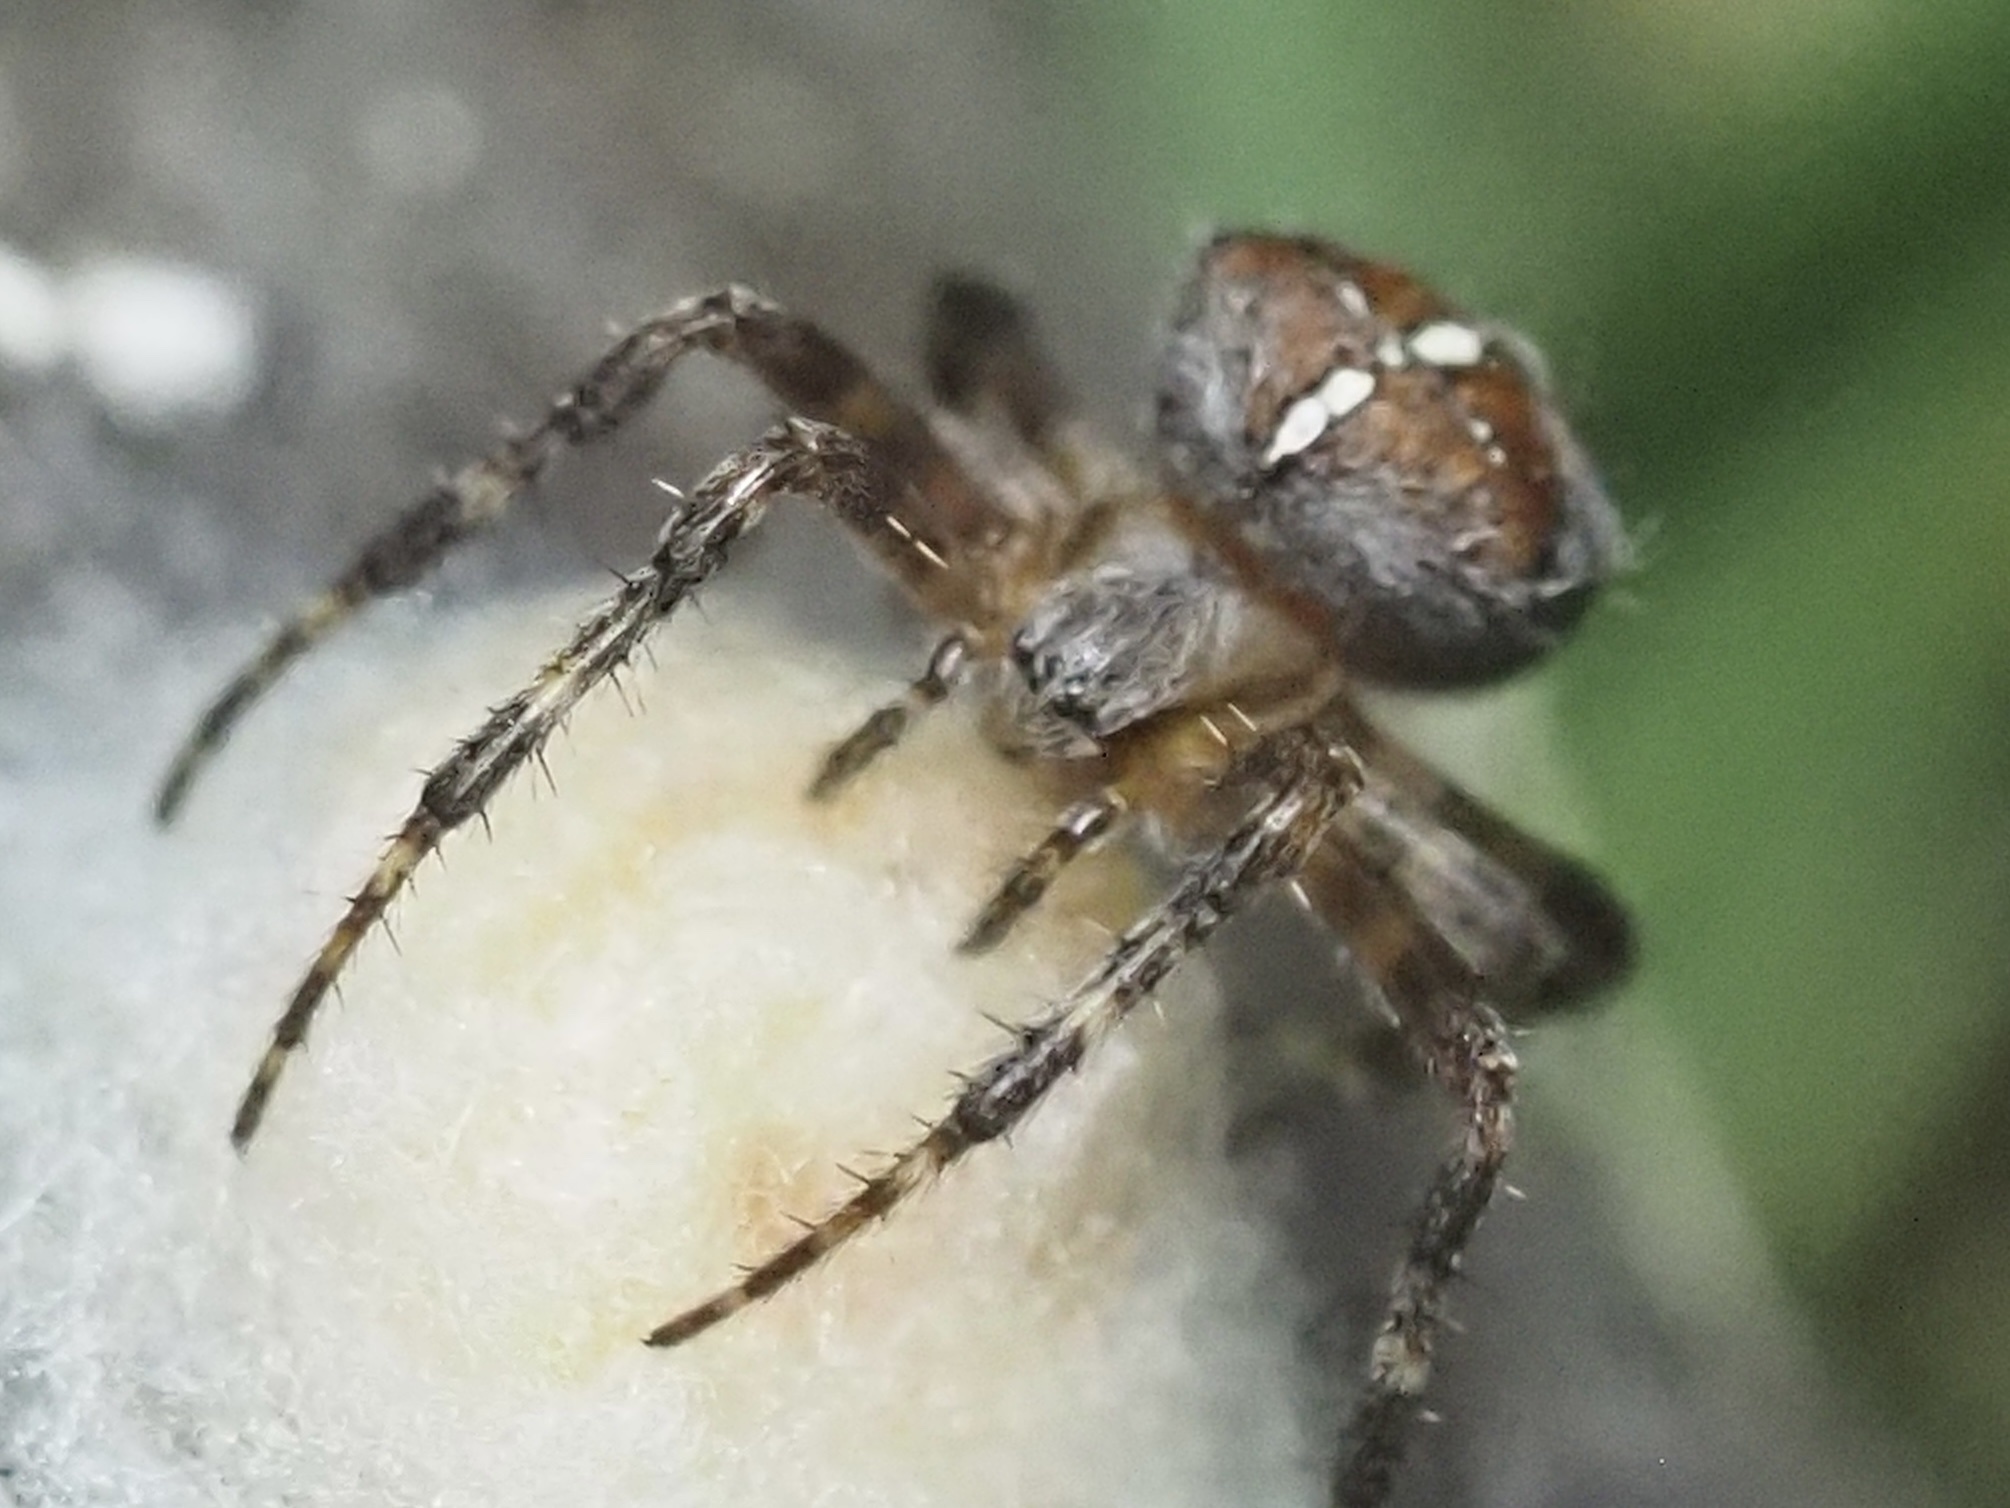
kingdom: Animalia
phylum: Arthropoda
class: Arachnida
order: Araneae
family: Araneidae
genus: Araneus
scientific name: Araneus diadematus
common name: Cross orbweaver
